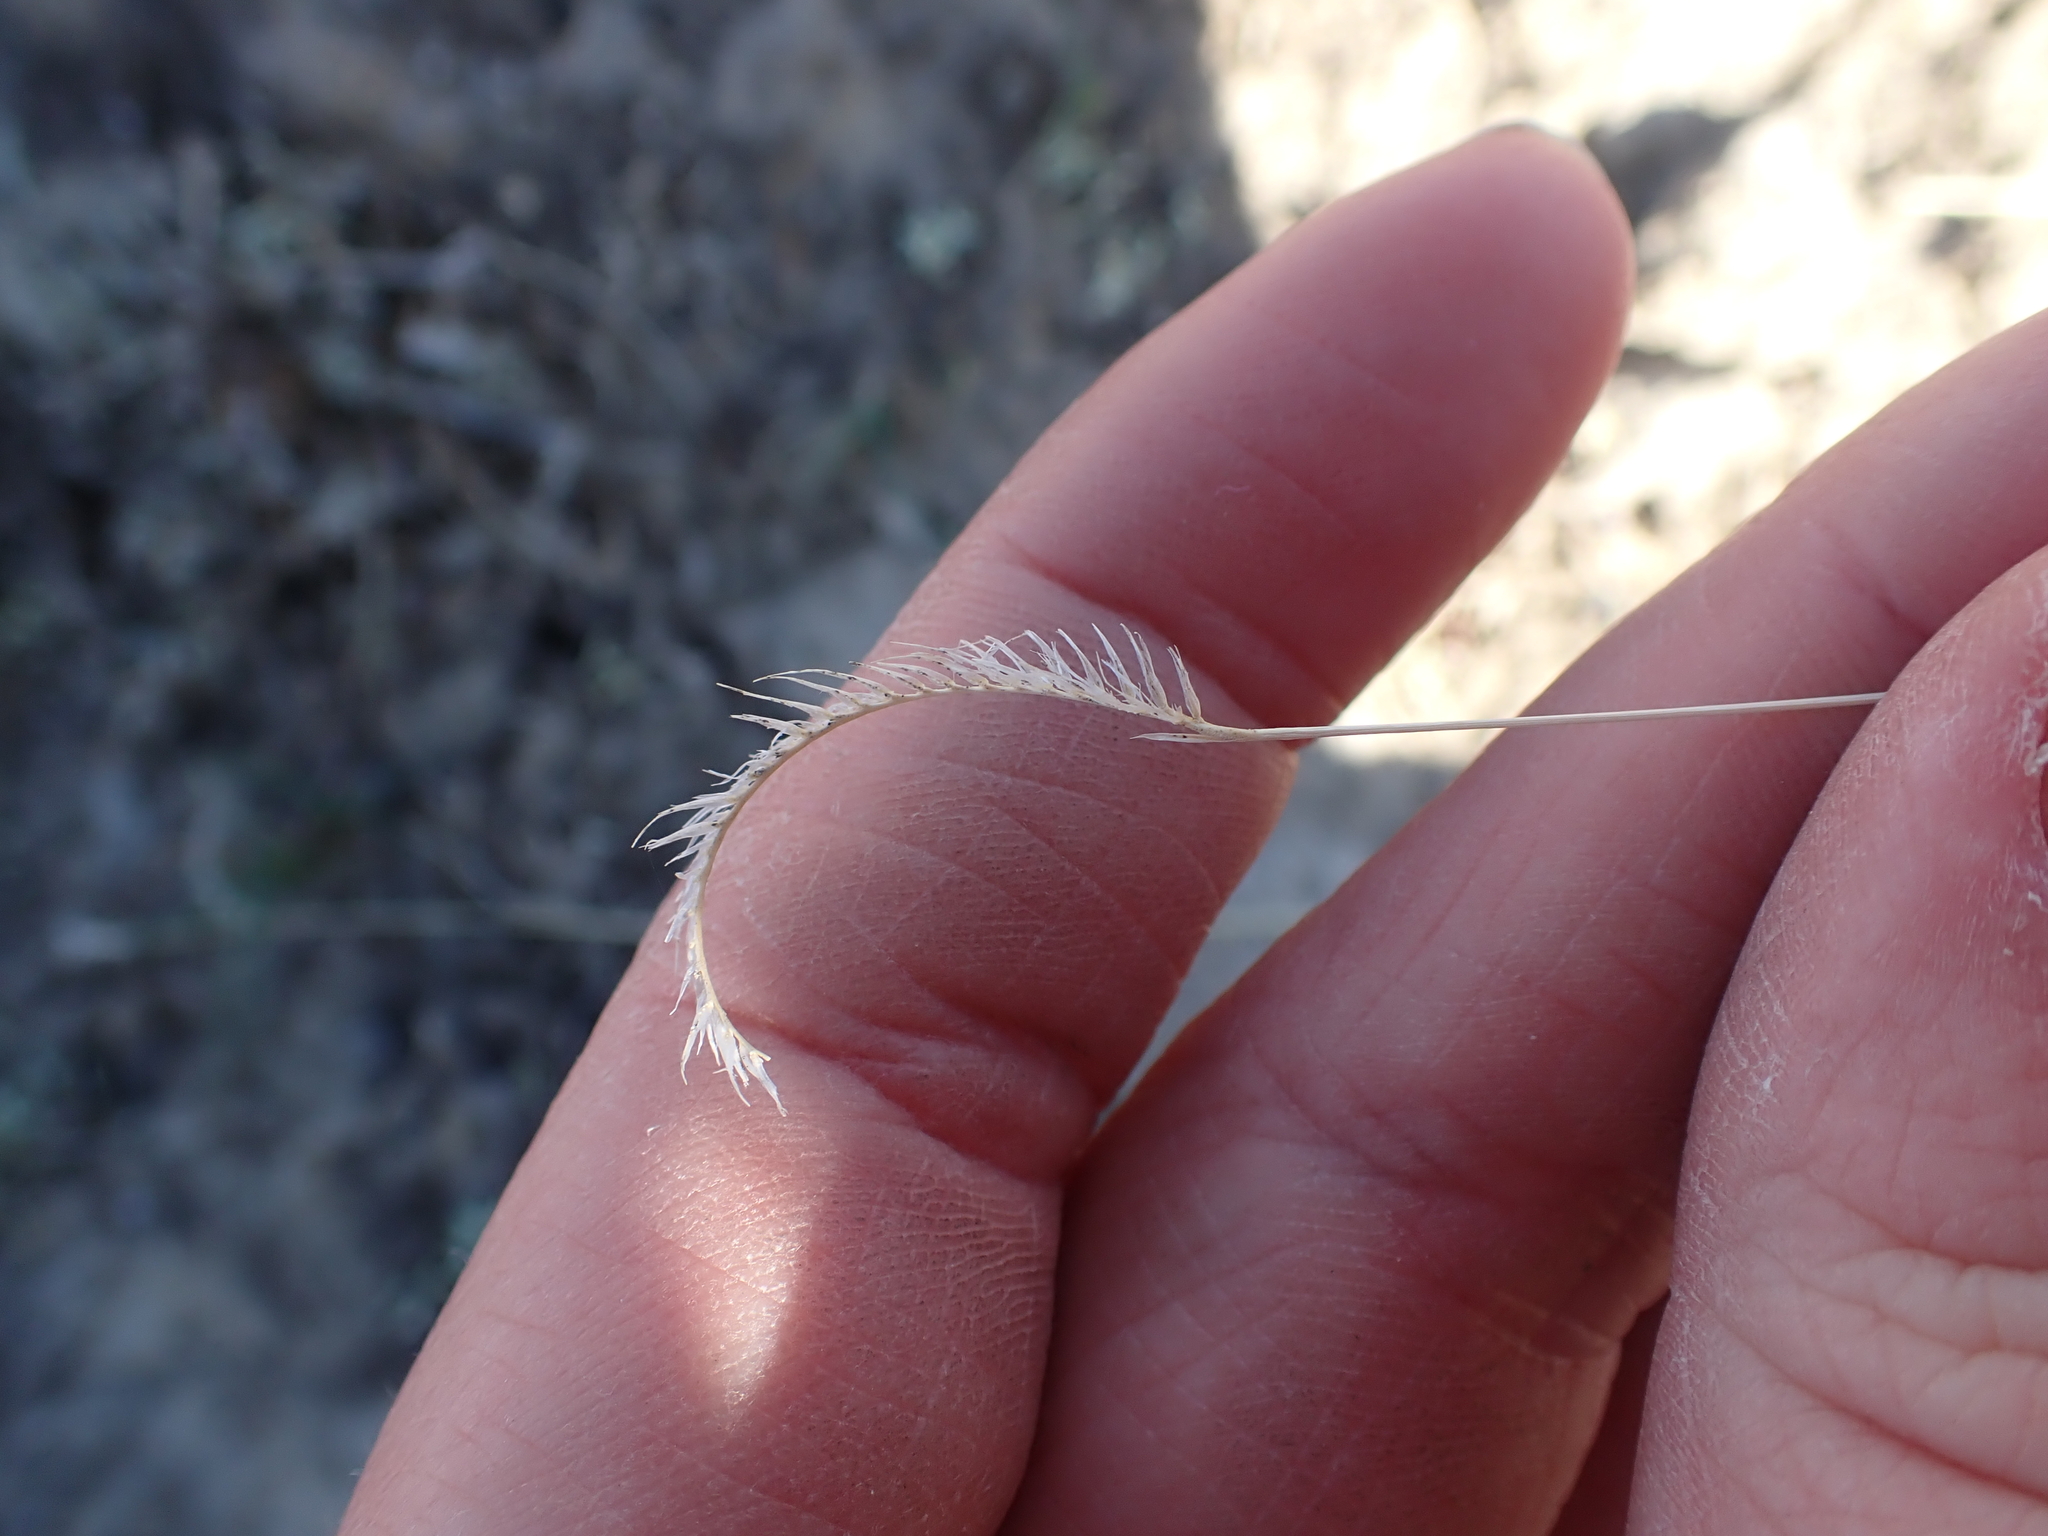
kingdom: Plantae
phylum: Tracheophyta
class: Liliopsida
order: Poales
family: Poaceae
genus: Bouteloua
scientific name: Bouteloua gracilis
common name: Blue grama
